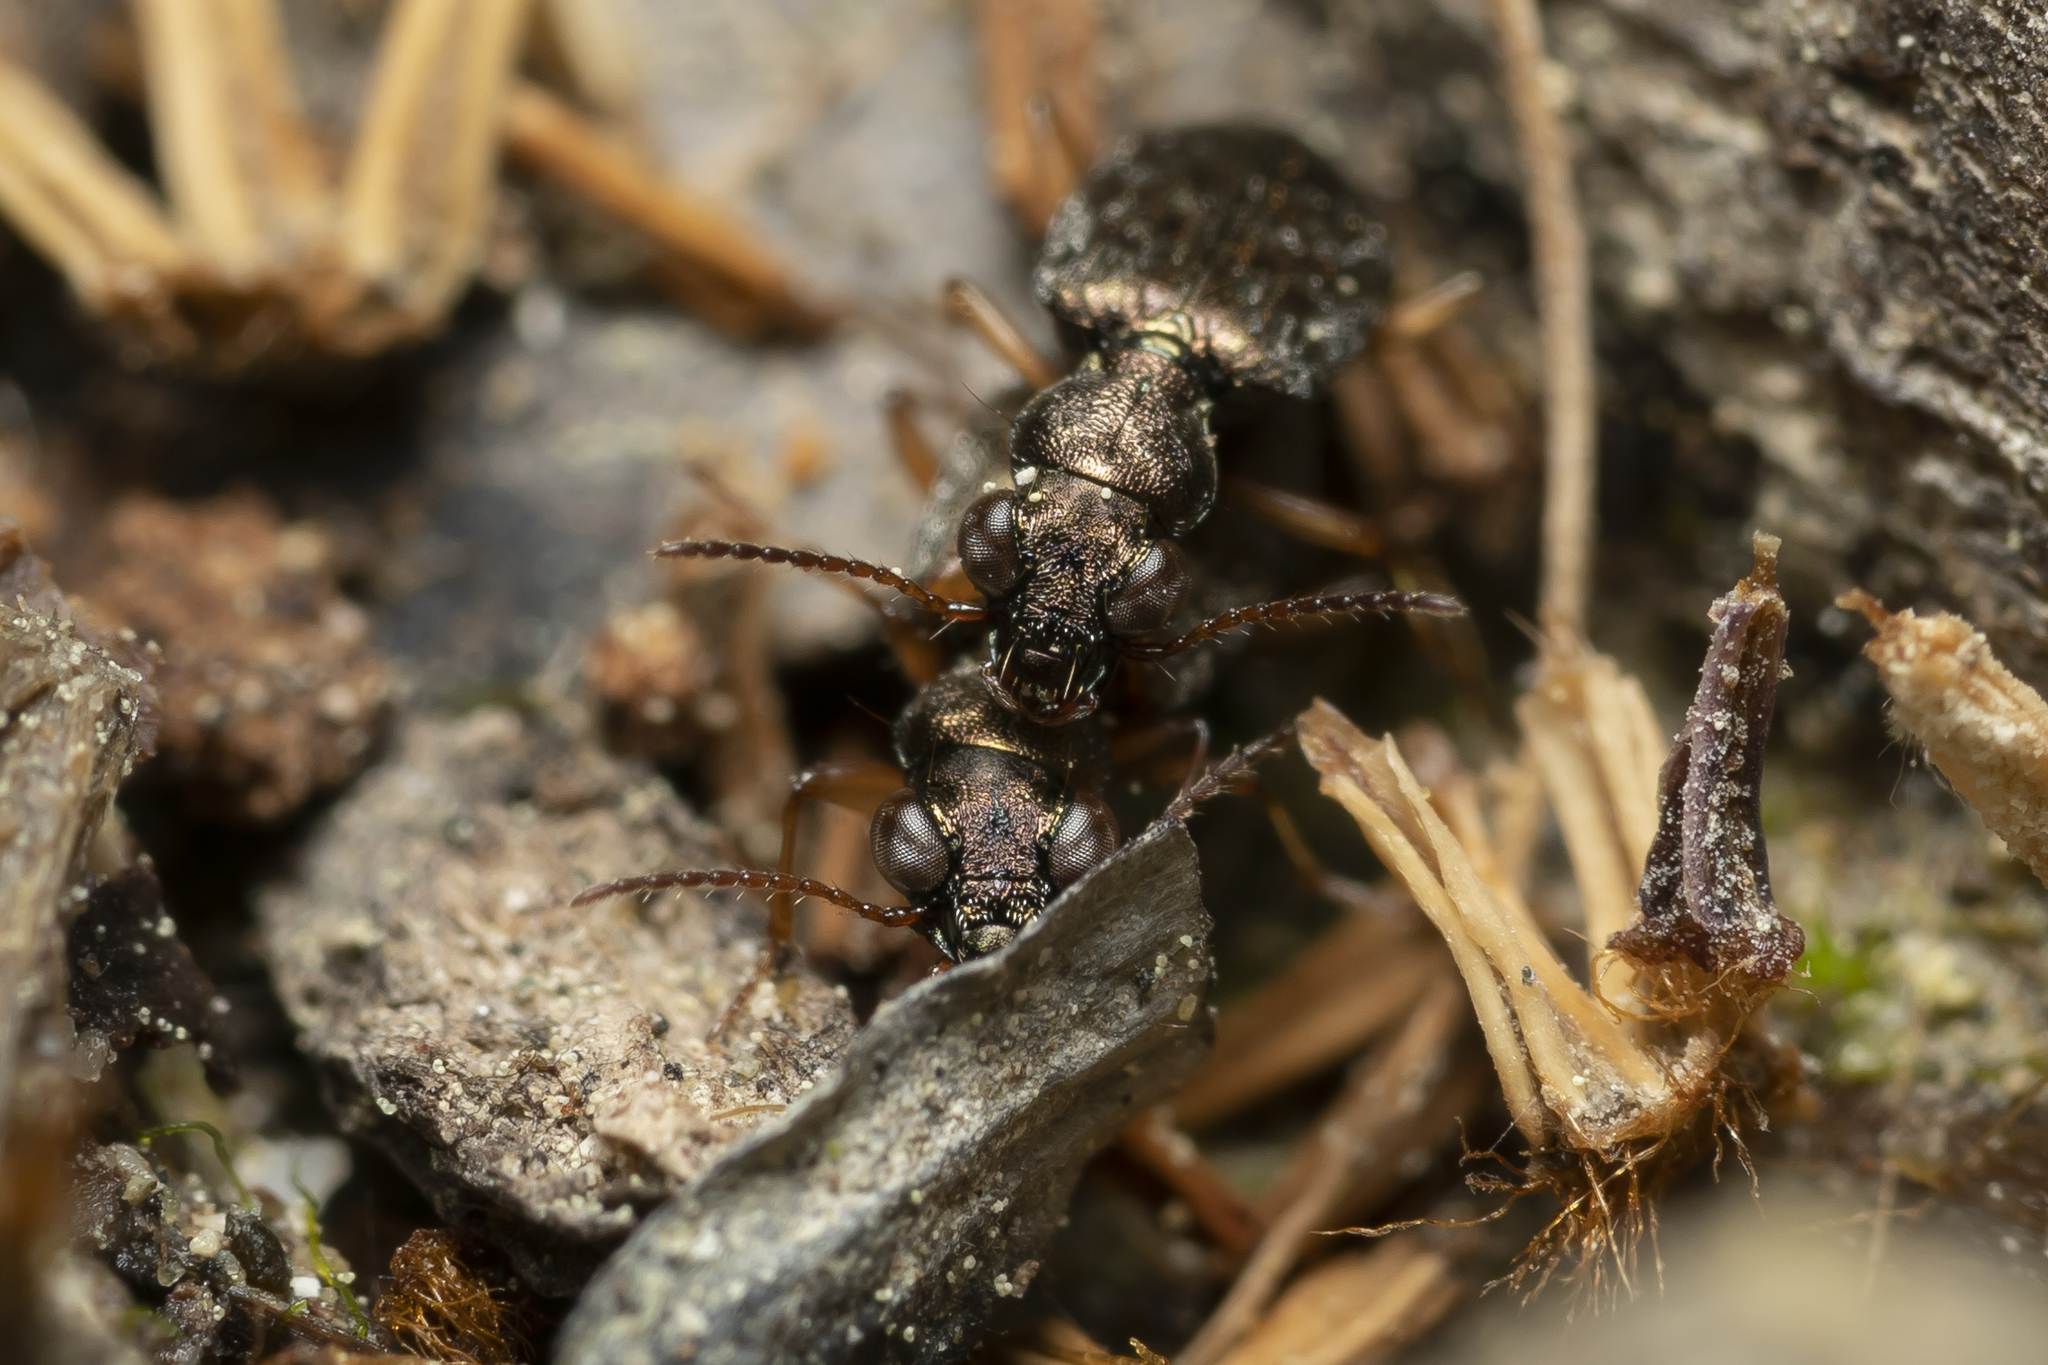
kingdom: Animalia
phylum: Arthropoda
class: Insecta
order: Coleoptera
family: Carabidae
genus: Asaphidion
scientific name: Asaphidion flavipes
